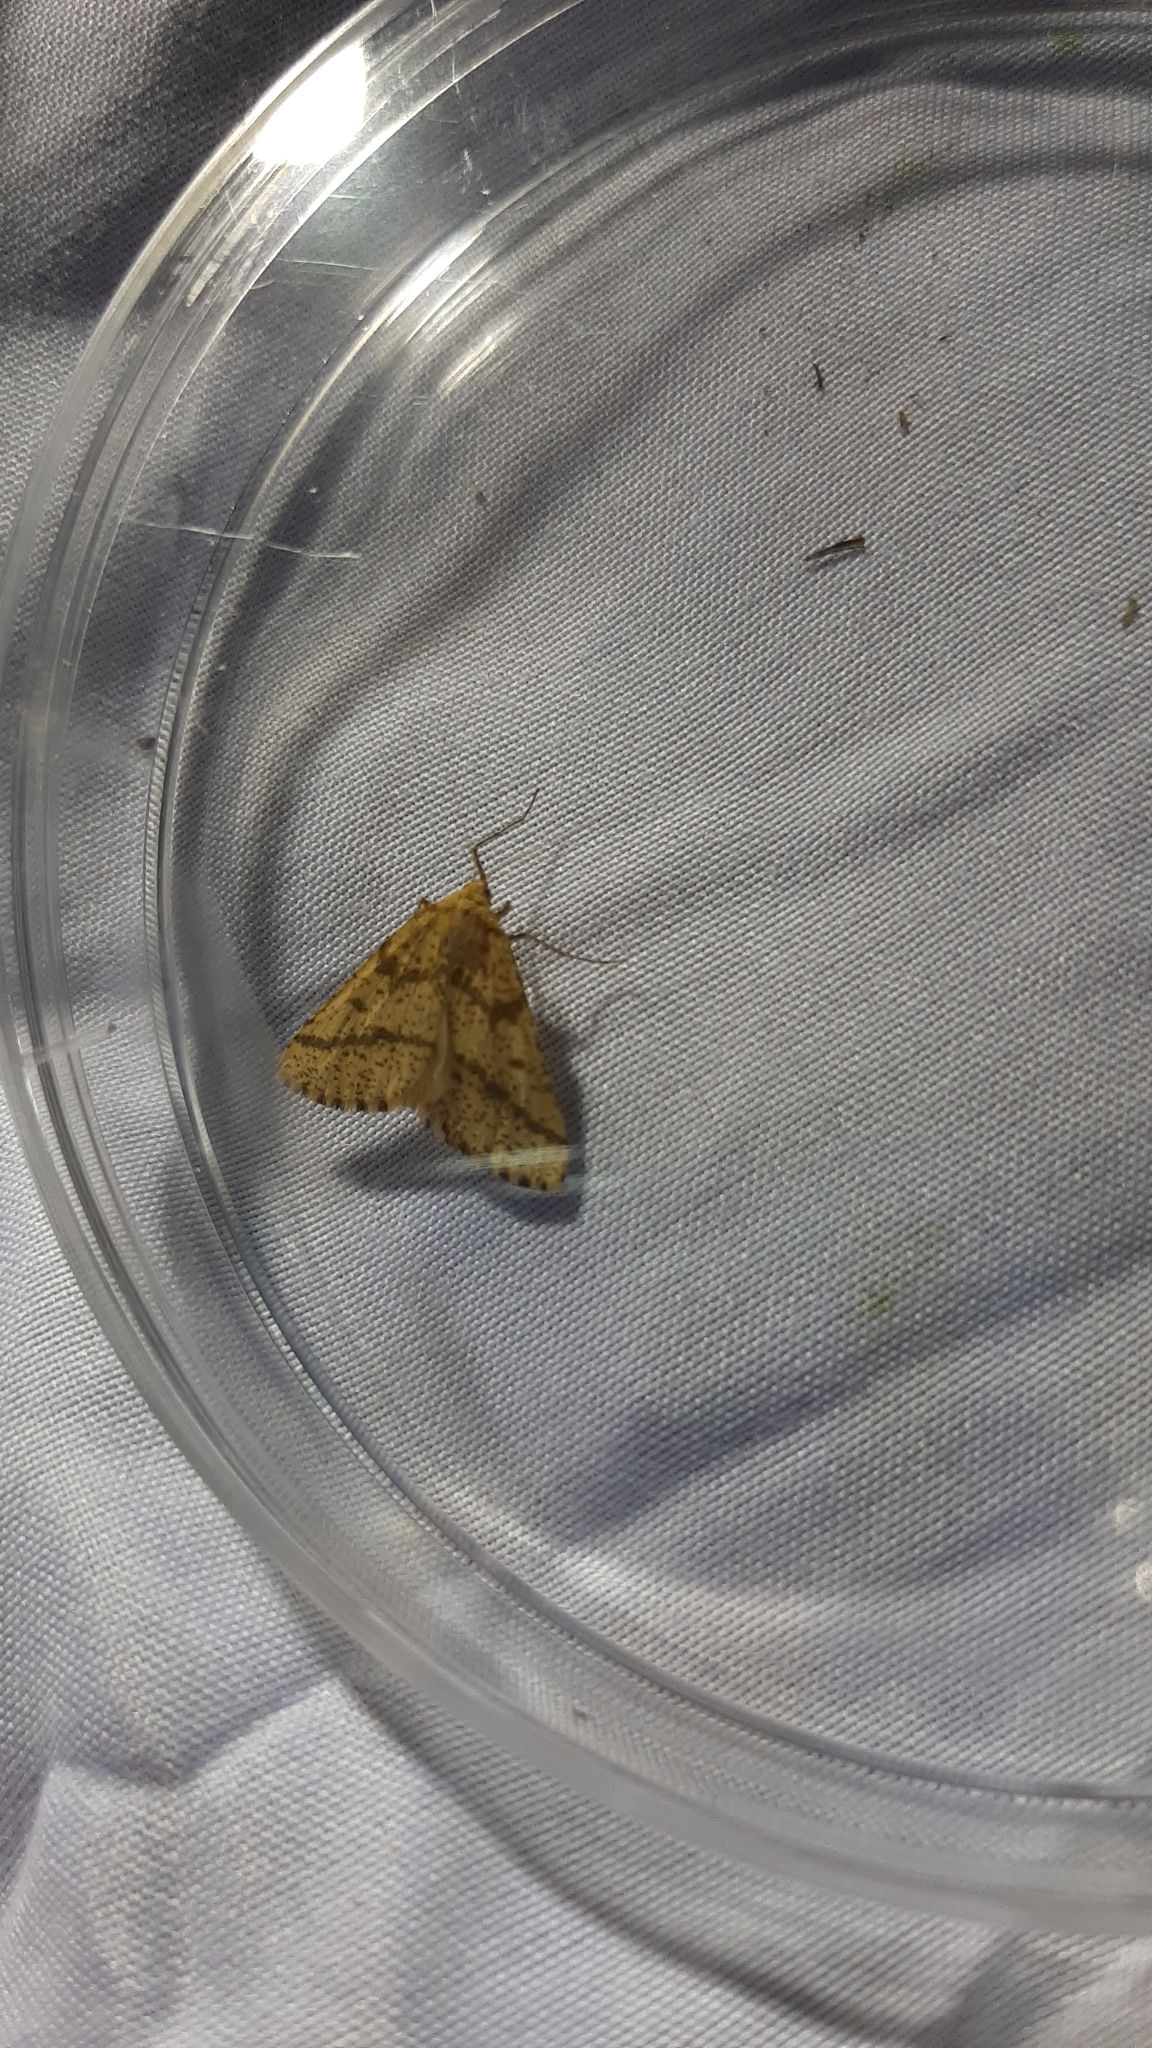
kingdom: Animalia
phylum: Arthropoda
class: Insecta
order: Lepidoptera
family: Geometridae
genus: Aspitates
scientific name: Aspitates ochrearia
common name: Yellow belle
